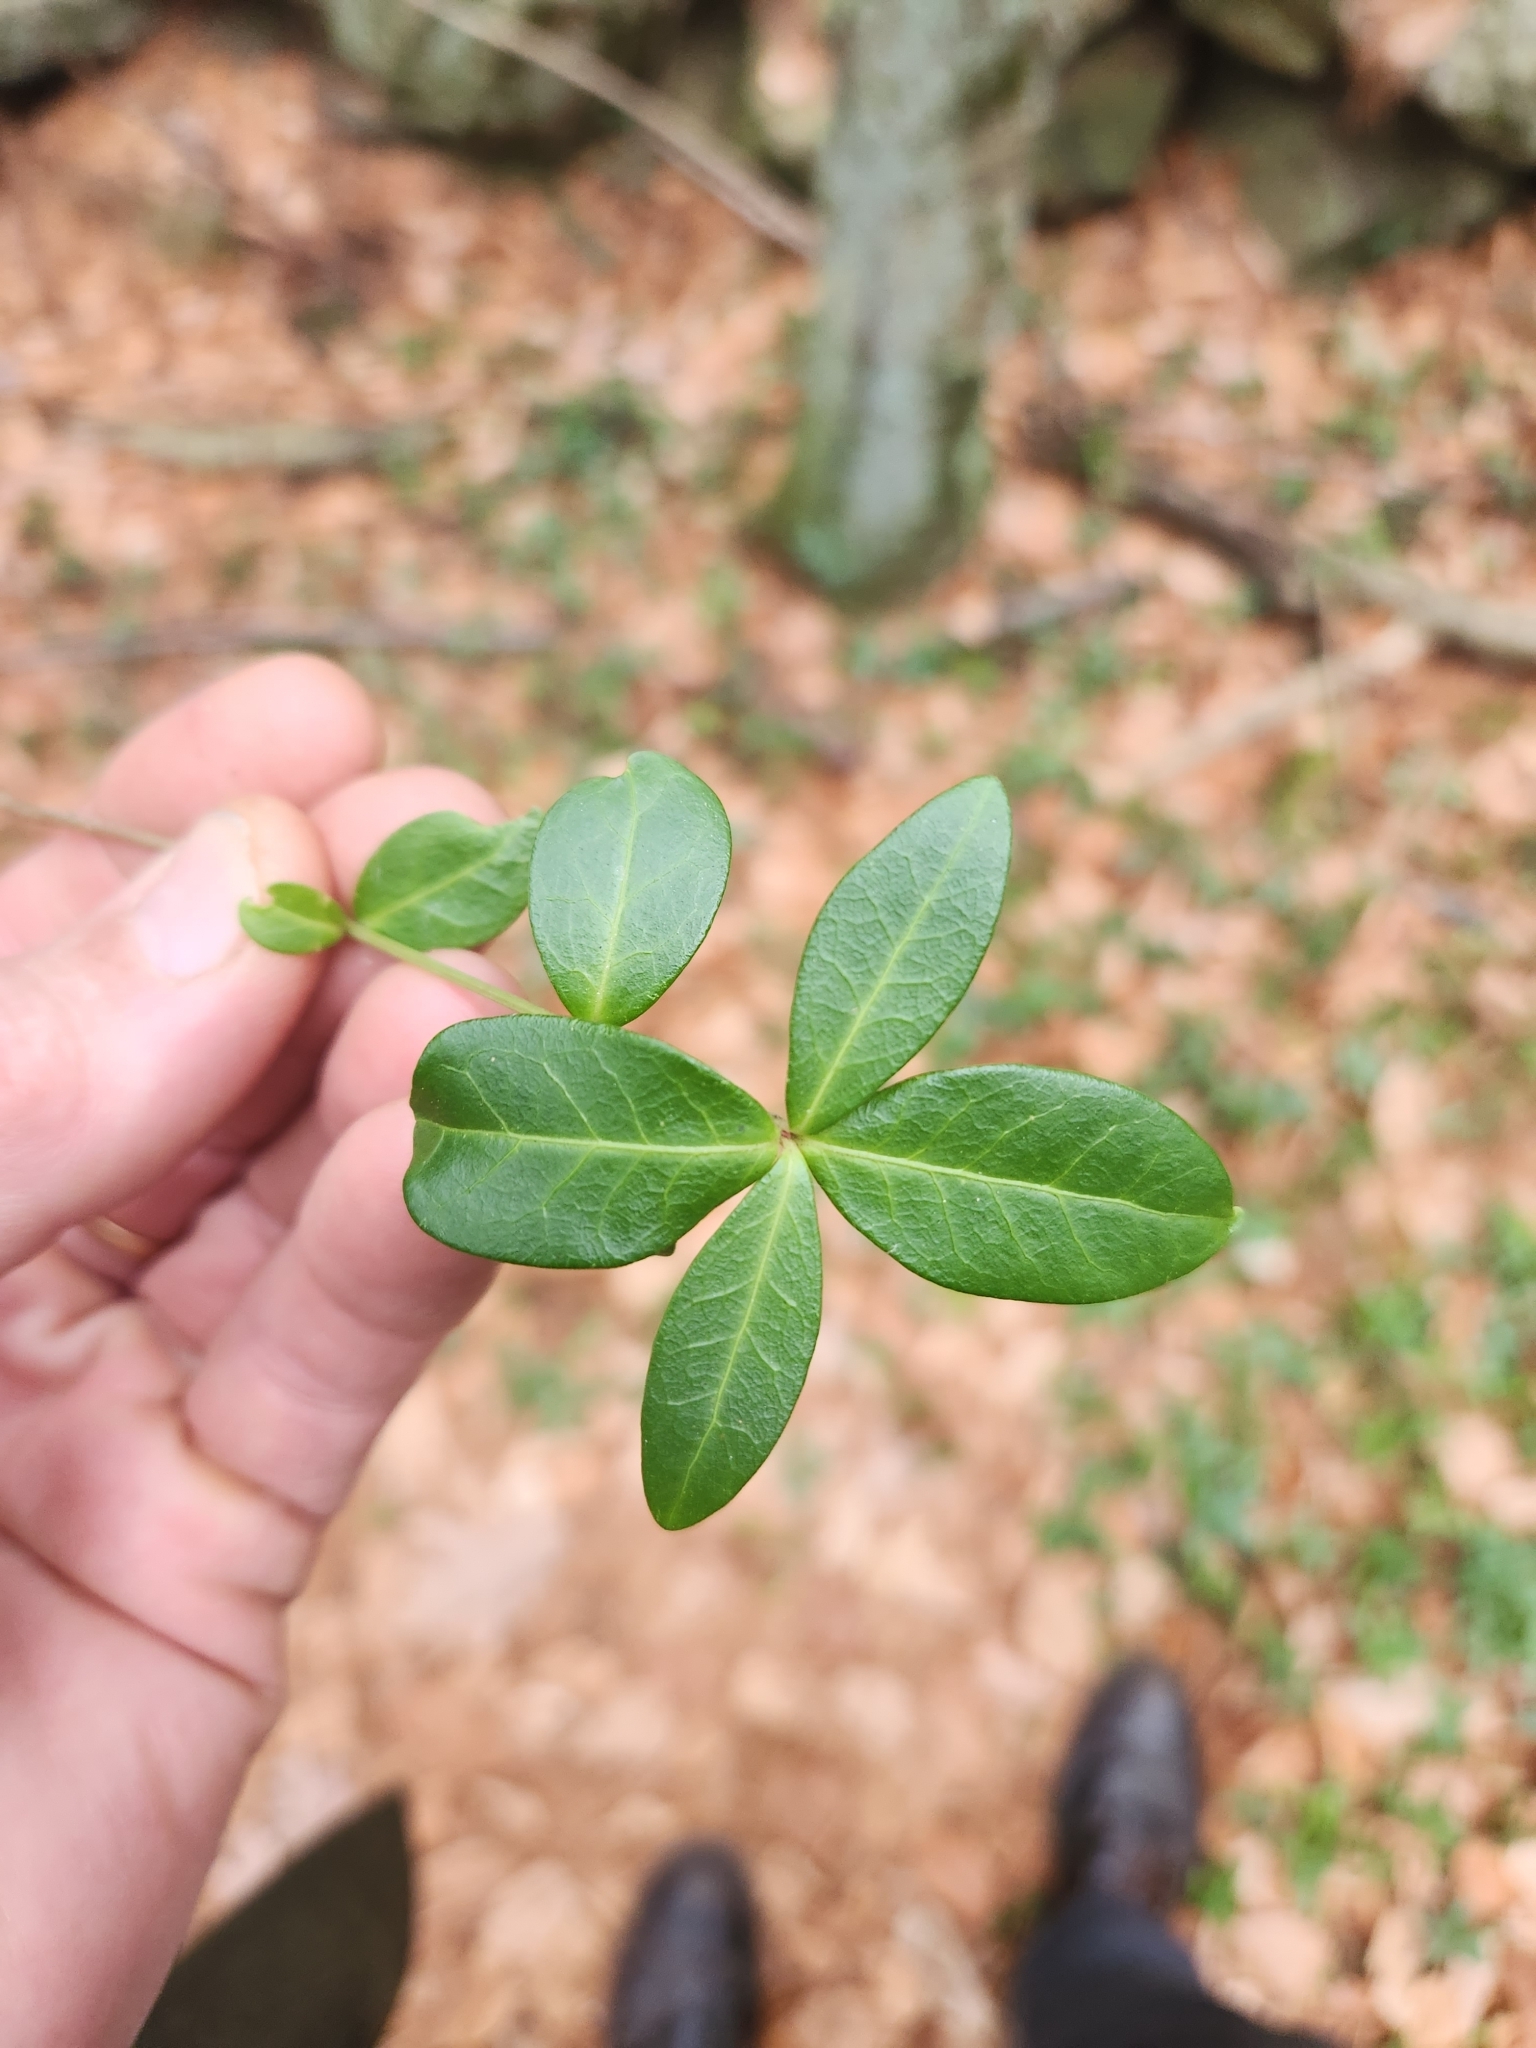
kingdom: Plantae
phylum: Tracheophyta
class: Magnoliopsida
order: Gentianales
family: Apocynaceae
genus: Vinca
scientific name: Vinca minor
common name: Lesser periwinkle
